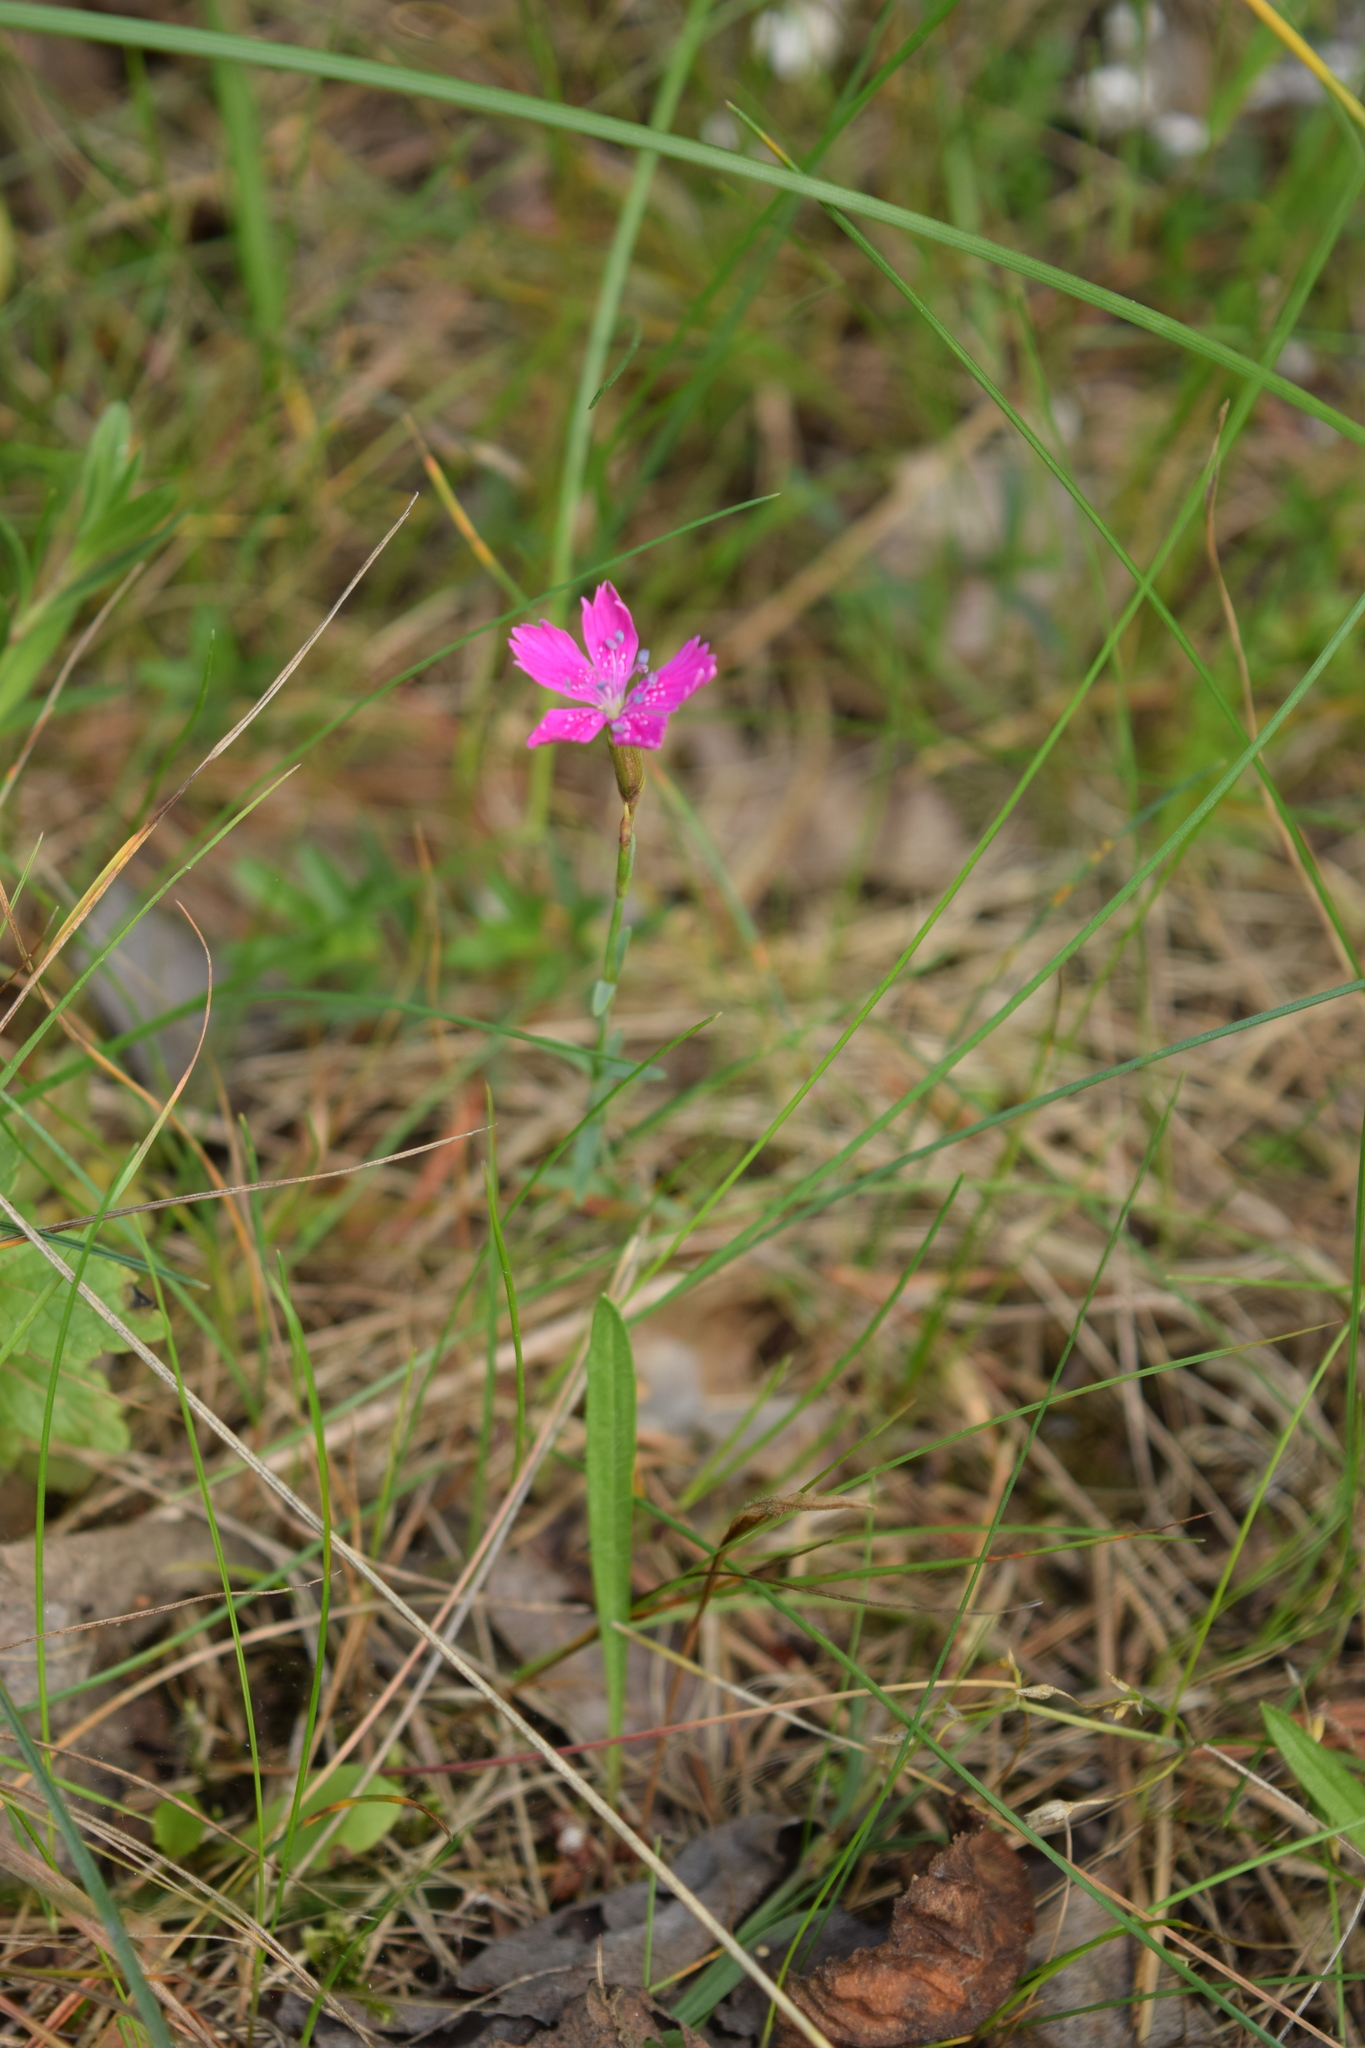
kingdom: Plantae
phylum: Tracheophyta
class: Magnoliopsida
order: Caryophyllales
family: Caryophyllaceae
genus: Dianthus
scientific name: Dianthus deltoides
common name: Maiden pink
